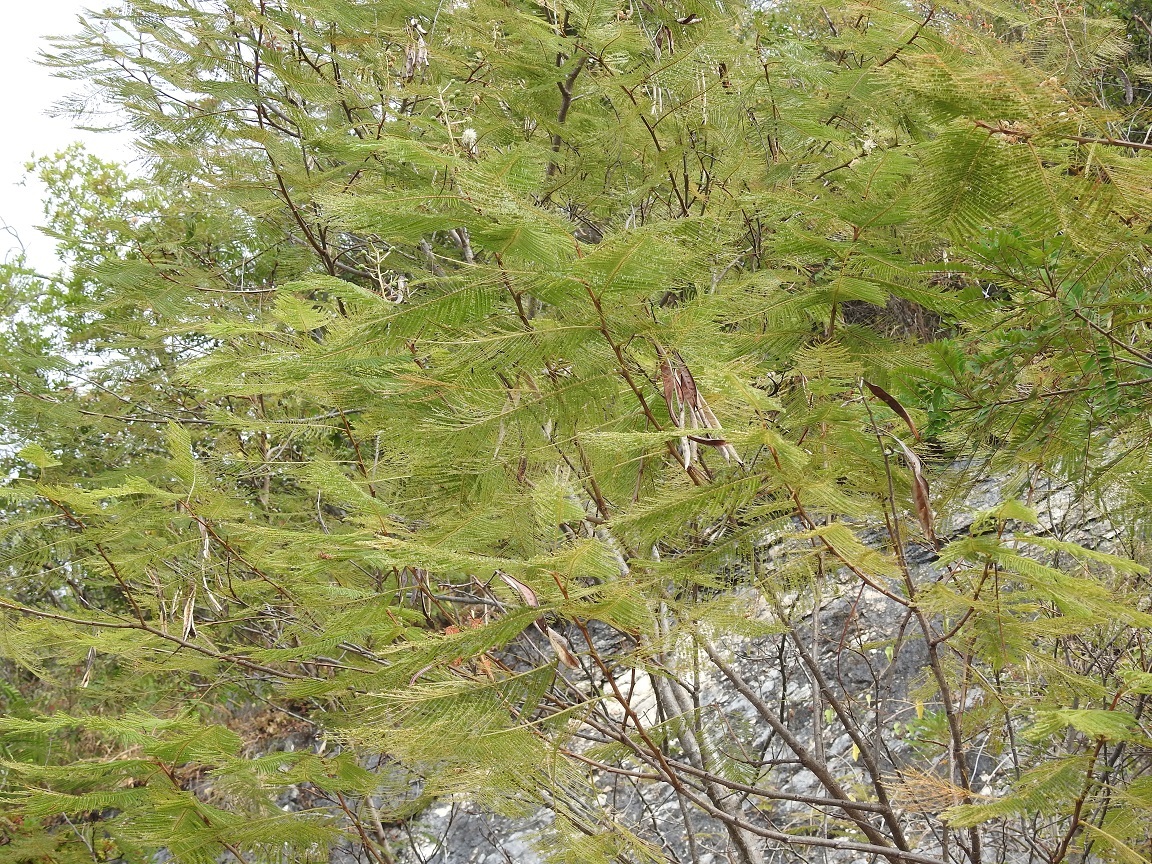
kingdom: Plantae
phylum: Tracheophyta
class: Magnoliopsida
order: Fabales
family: Fabaceae
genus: Lysiloma
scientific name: Lysiloma acapulcense
